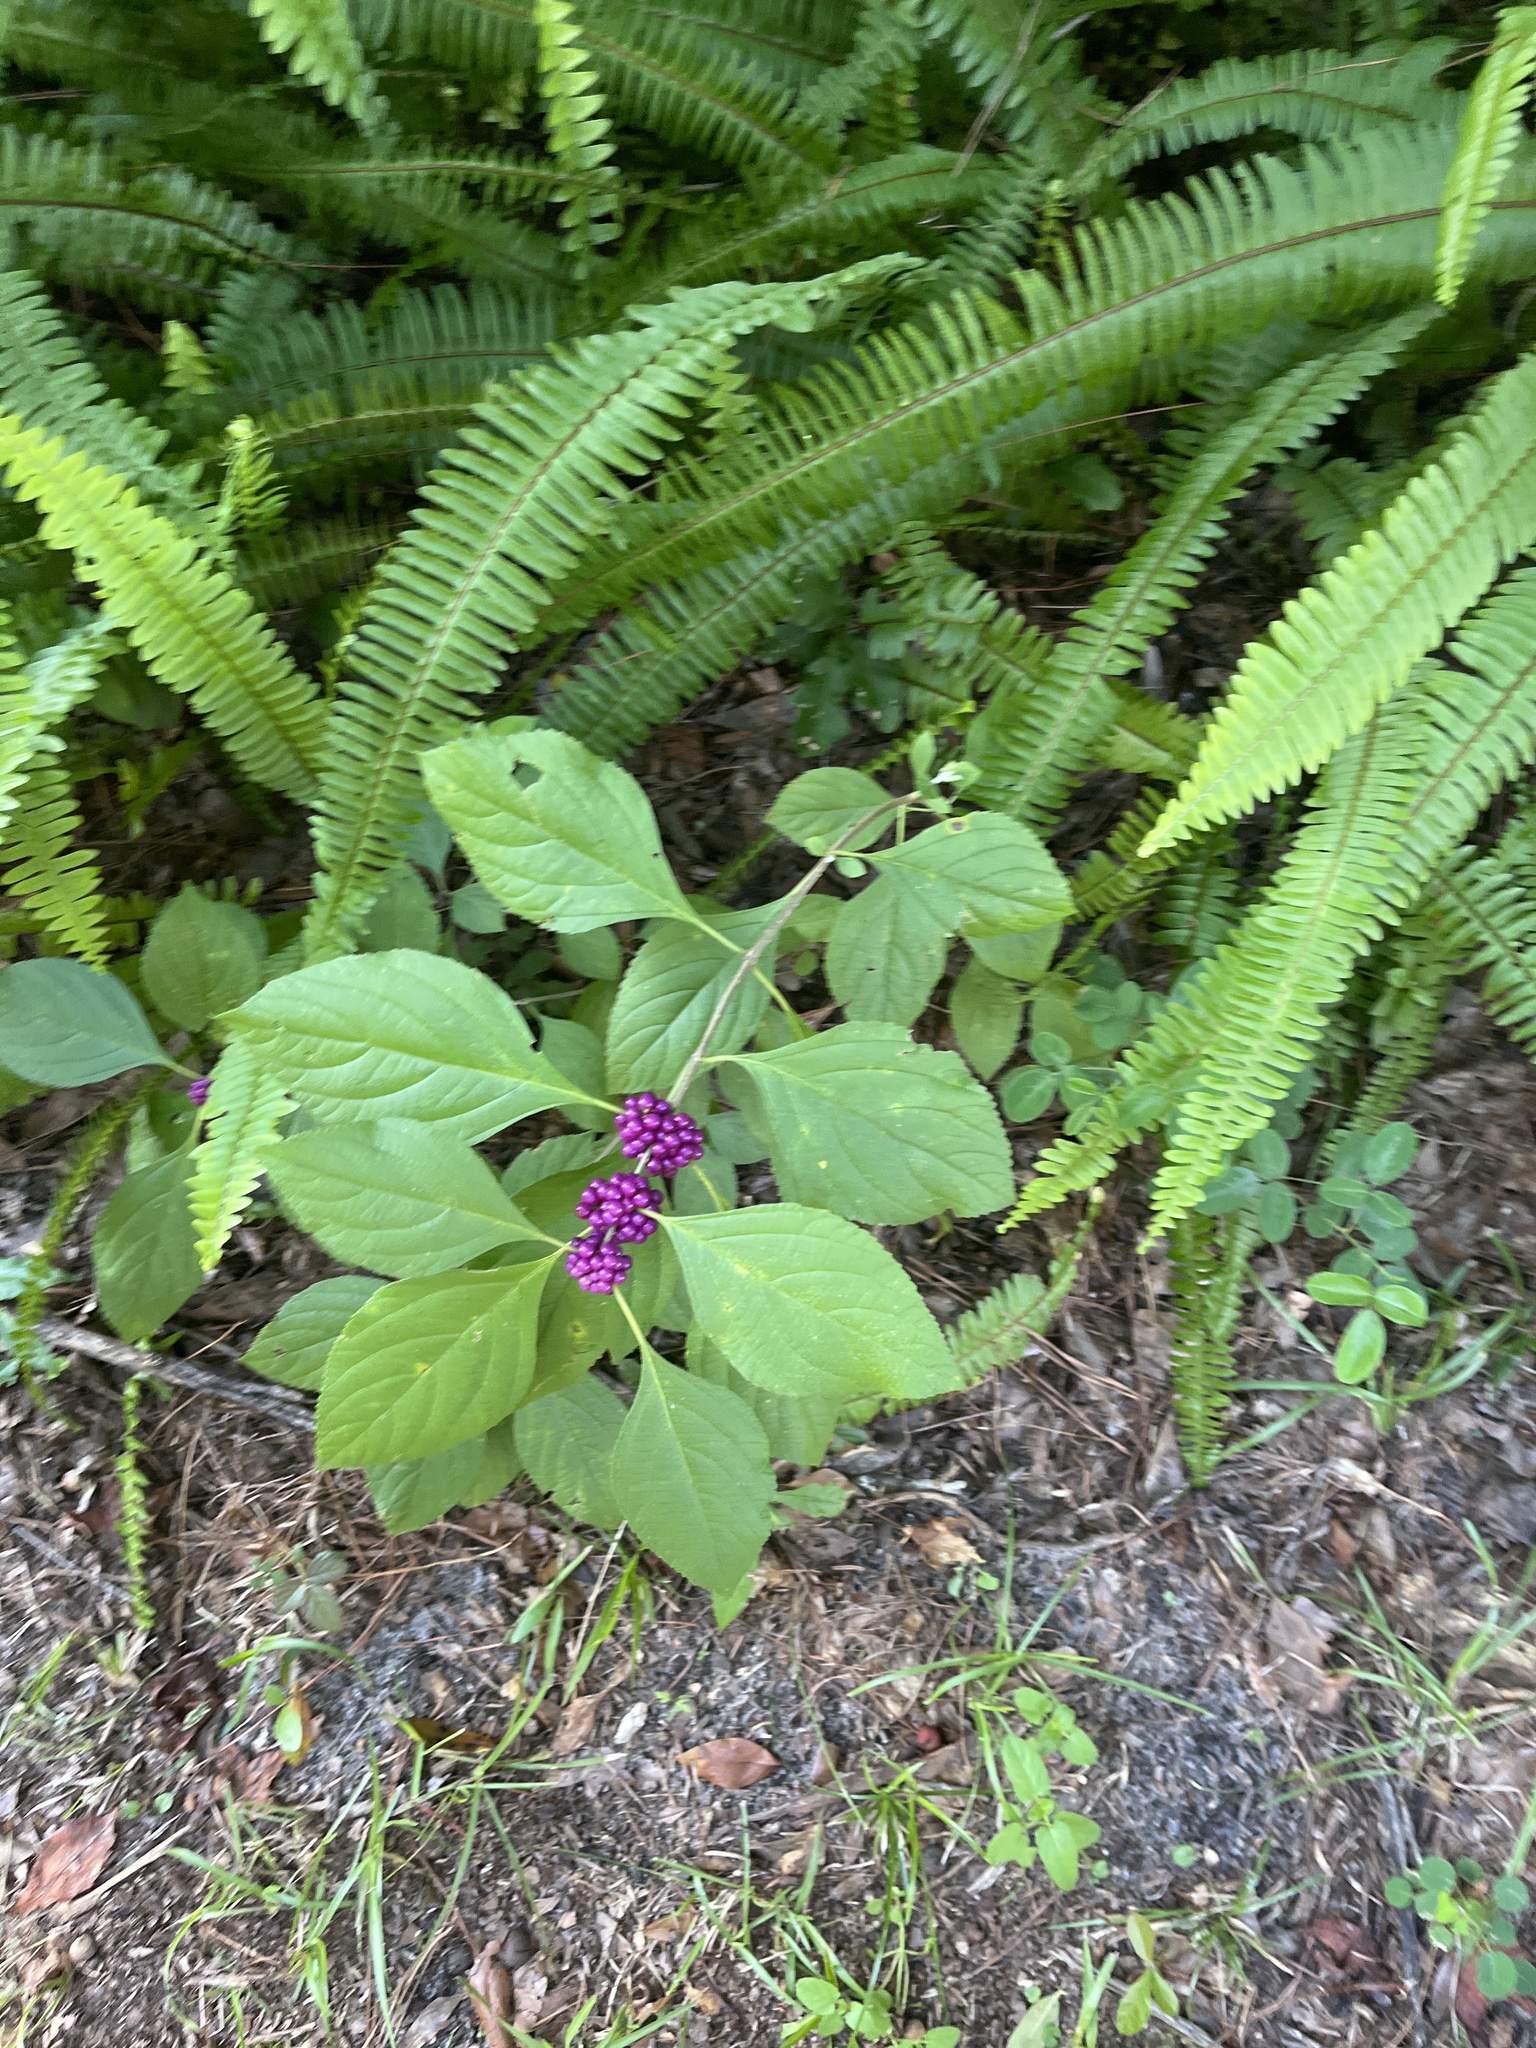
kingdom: Plantae
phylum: Tracheophyta
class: Magnoliopsida
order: Lamiales
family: Lamiaceae
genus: Callicarpa
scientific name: Callicarpa americana
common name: American beautyberry
